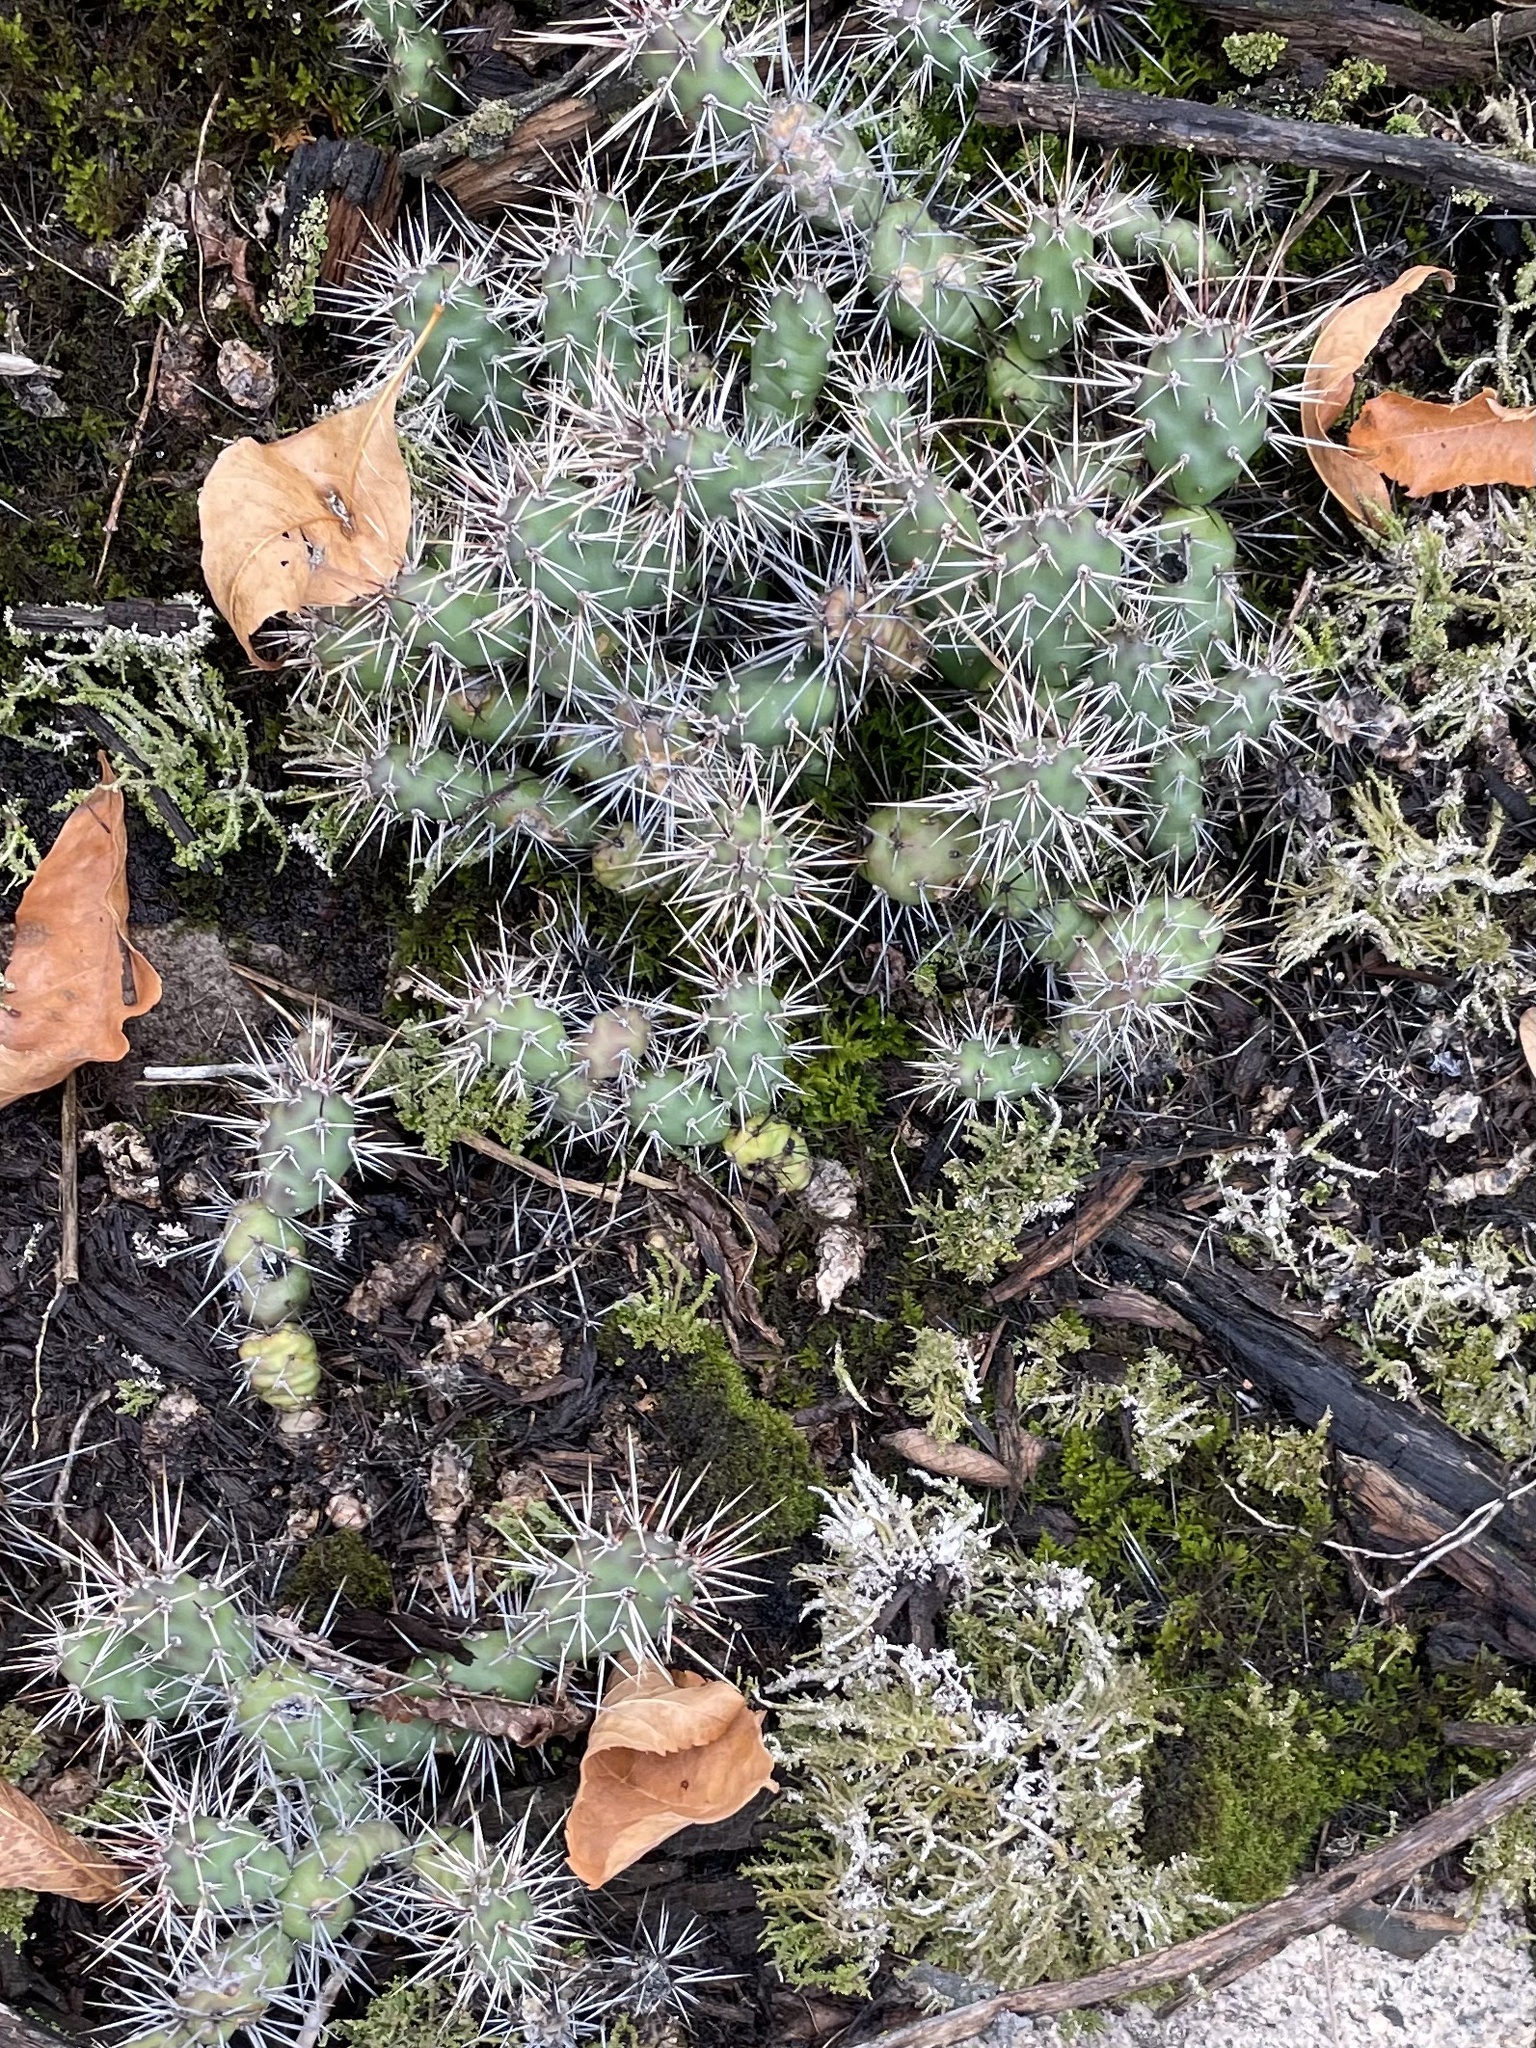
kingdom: Plantae
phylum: Tracheophyta
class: Magnoliopsida
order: Caryophyllales
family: Cactaceae
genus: Opuntia
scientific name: Opuntia fragilis
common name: Brittle cactus
